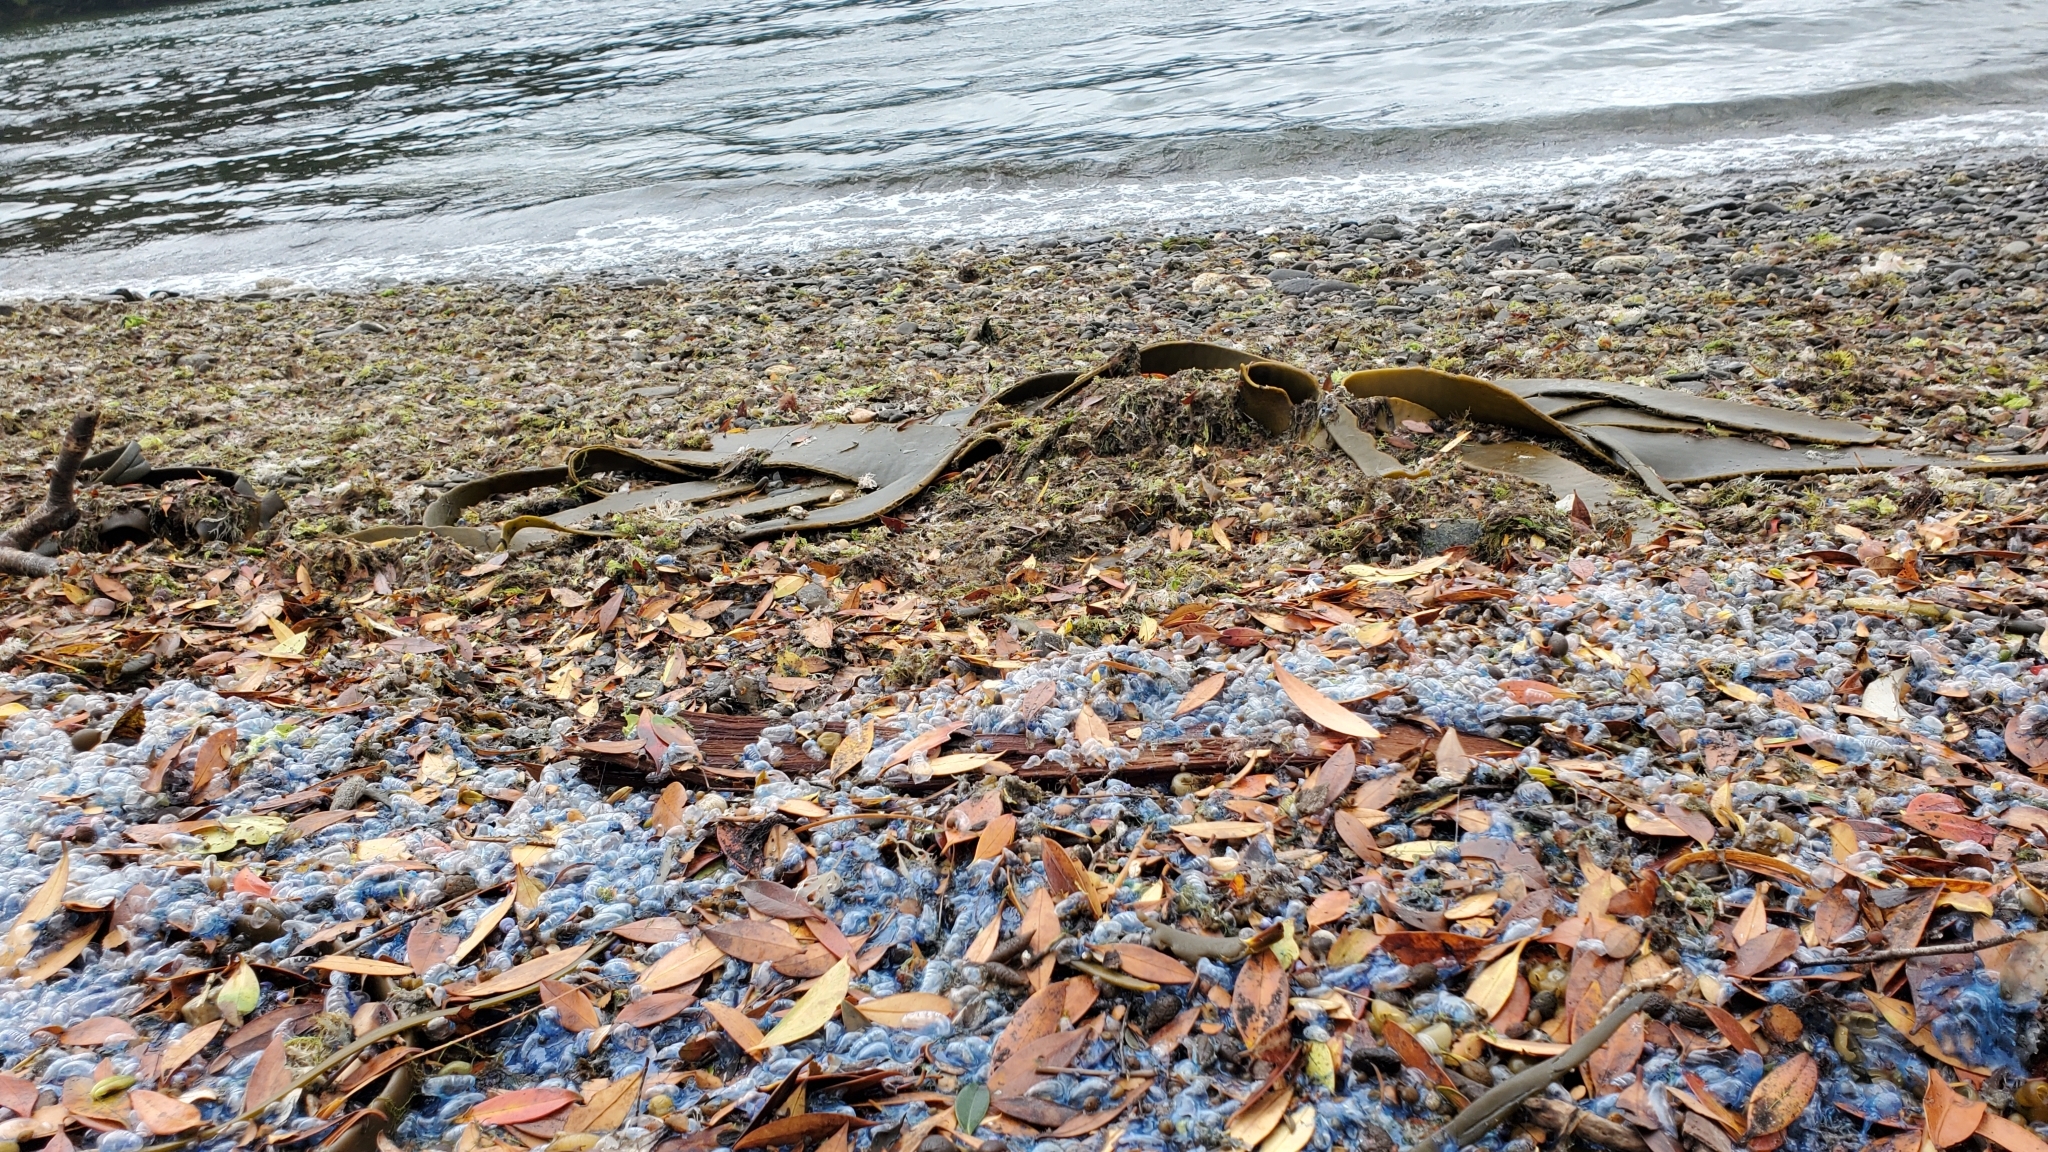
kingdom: Animalia
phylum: Cnidaria
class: Hydrozoa
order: Siphonophorae
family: Physaliidae
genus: Physalia
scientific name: Physalia physalis
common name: Portuguese man-of-war
